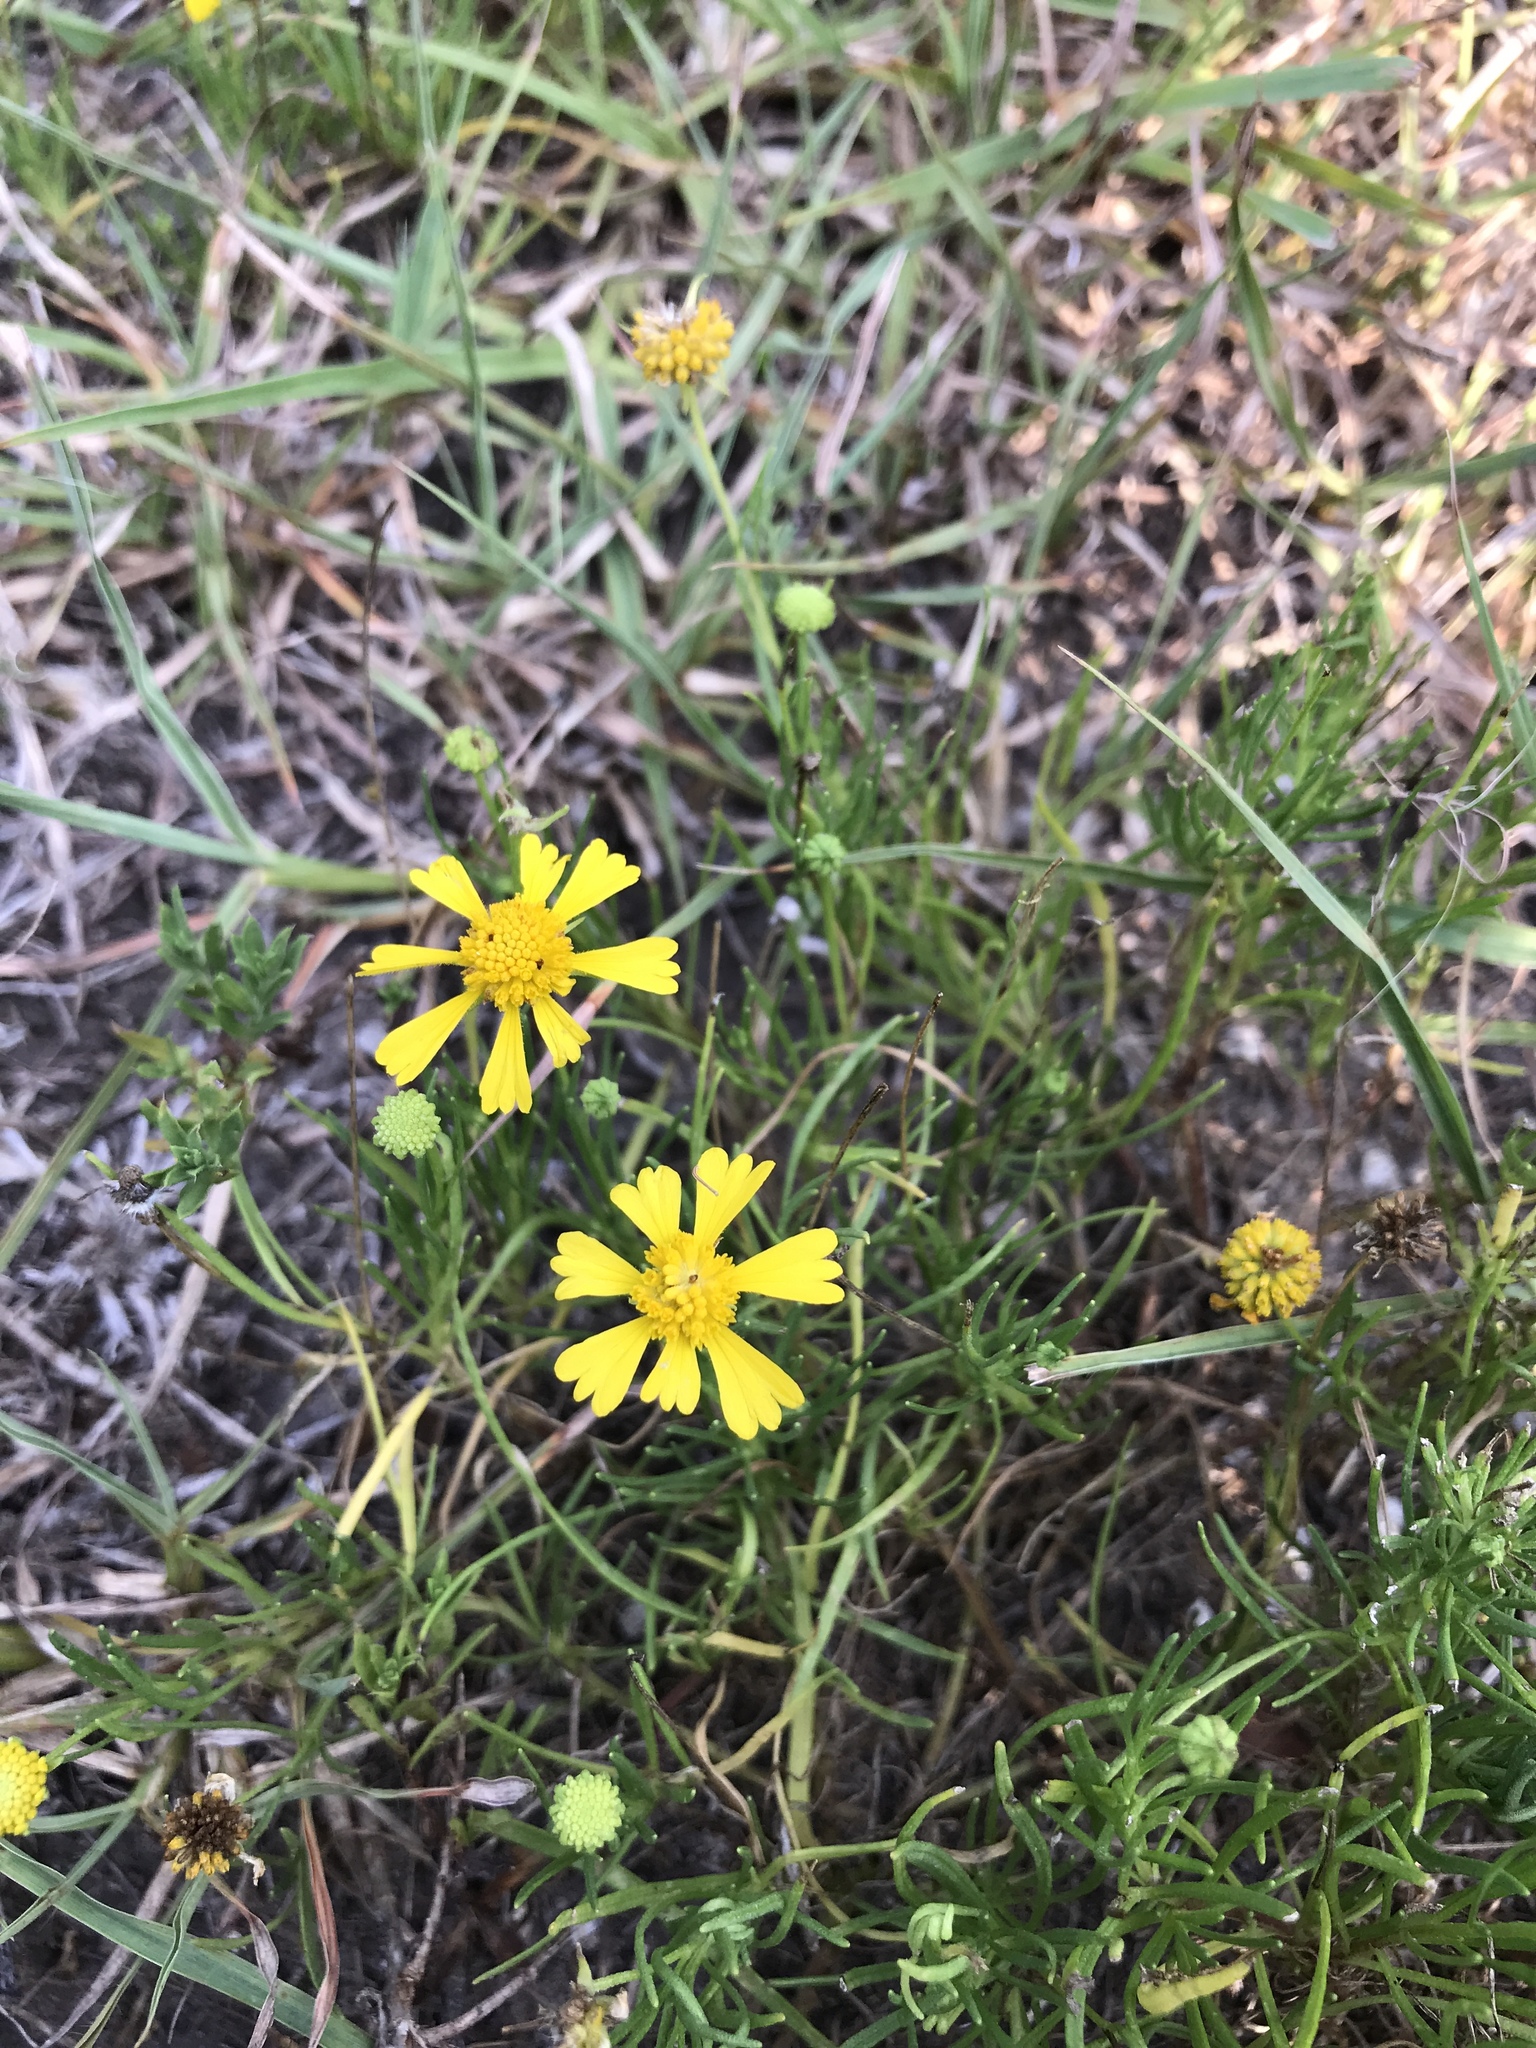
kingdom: Plantae
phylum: Tracheophyta
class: Magnoliopsida
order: Asterales
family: Asteraceae
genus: Helenium
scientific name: Helenium amarum
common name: Bitter sneezeweed
